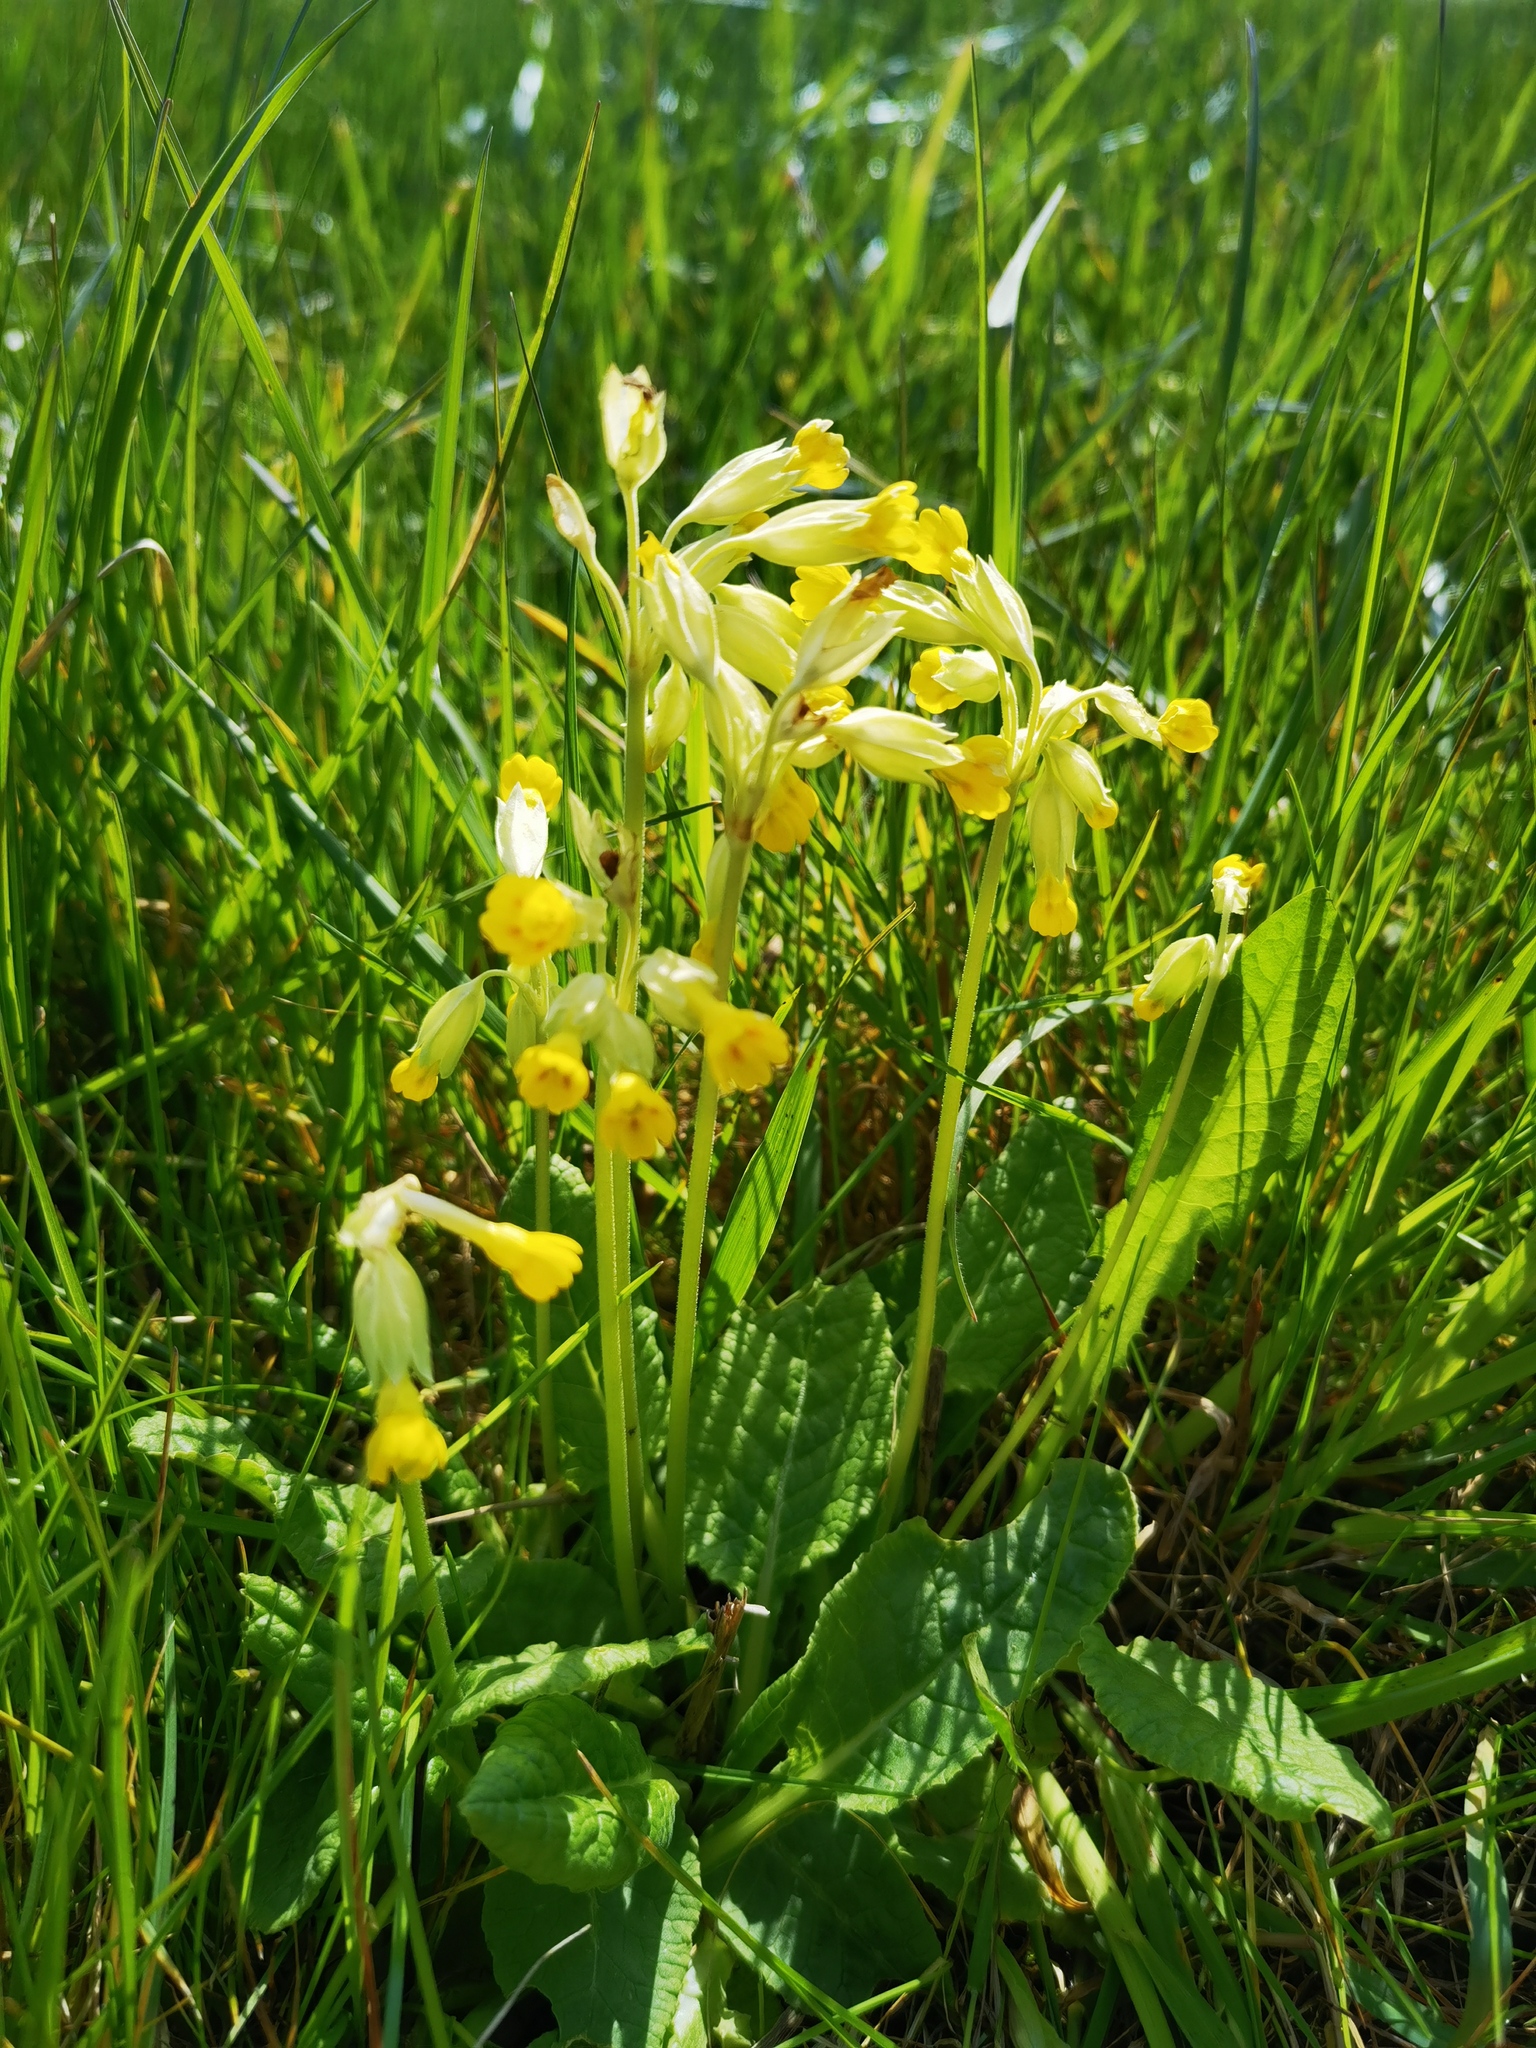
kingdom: Plantae
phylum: Tracheophyta
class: Magnoliopsida
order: Ericales
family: Primulaceae
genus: Primula
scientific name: Primula veris
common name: Cowslip
